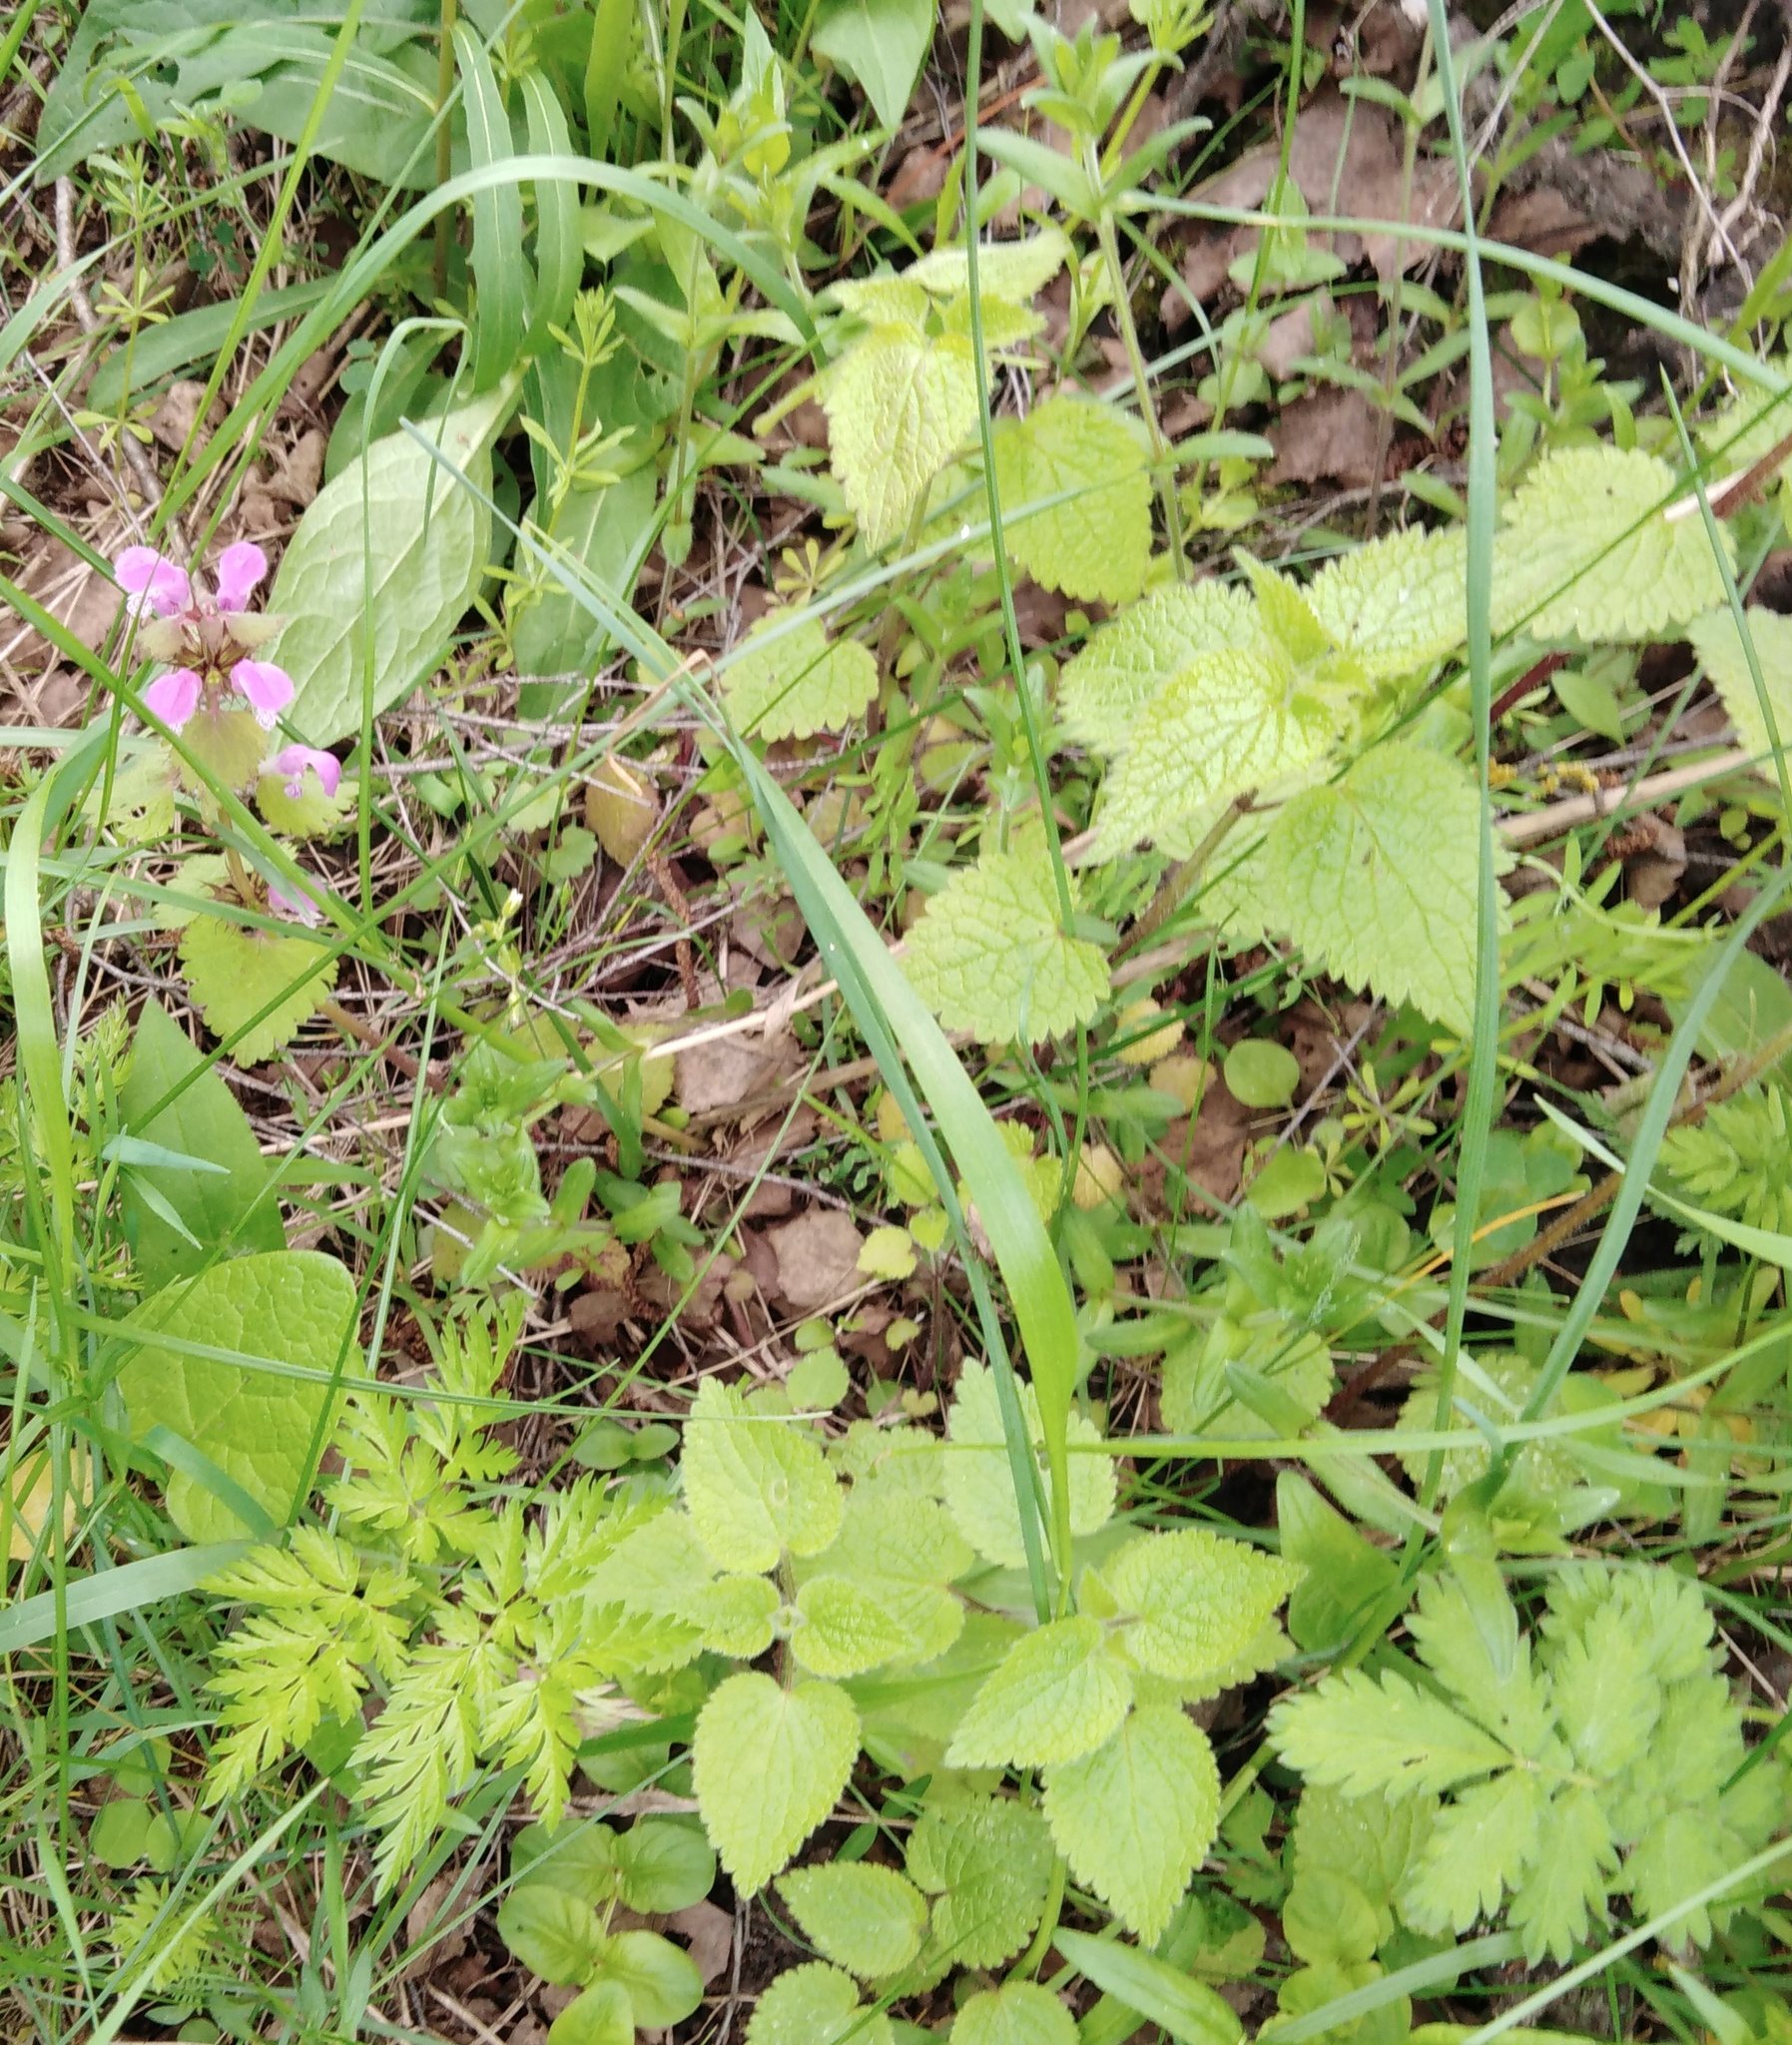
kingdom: Plantae
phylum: Tracheophyta
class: Magnoliopsida
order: Lamiales
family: Lamiaceae
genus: Lamium
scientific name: Lamium maculatum
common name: Spotted dead-nettle
